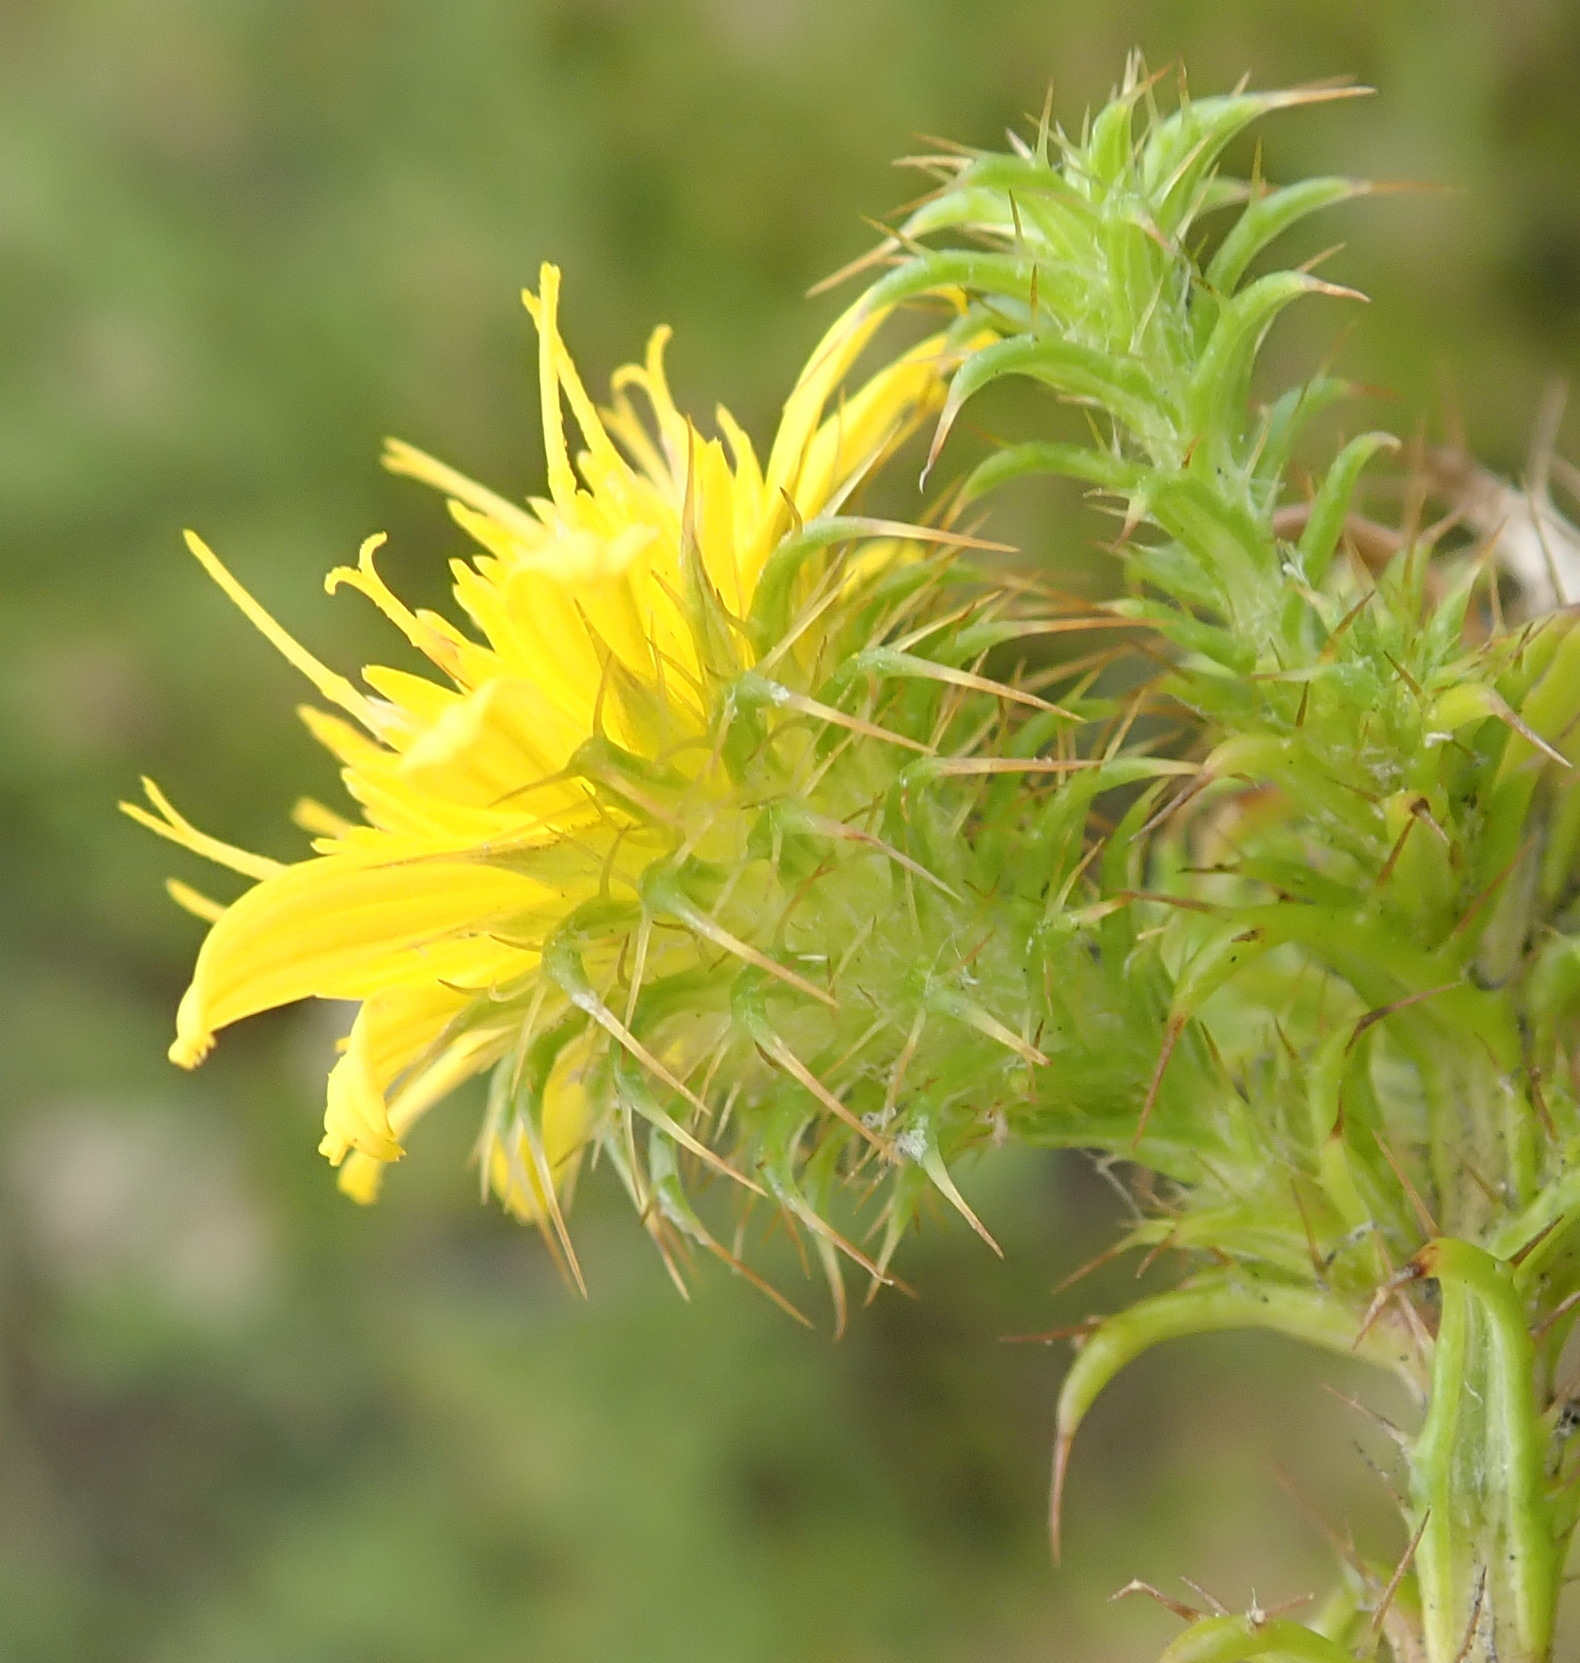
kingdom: Plantae
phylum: Tracheophyta
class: Magnoliopsida
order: Asterales
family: Asteraceae
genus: Cullumia
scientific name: Cullumia decurrens
